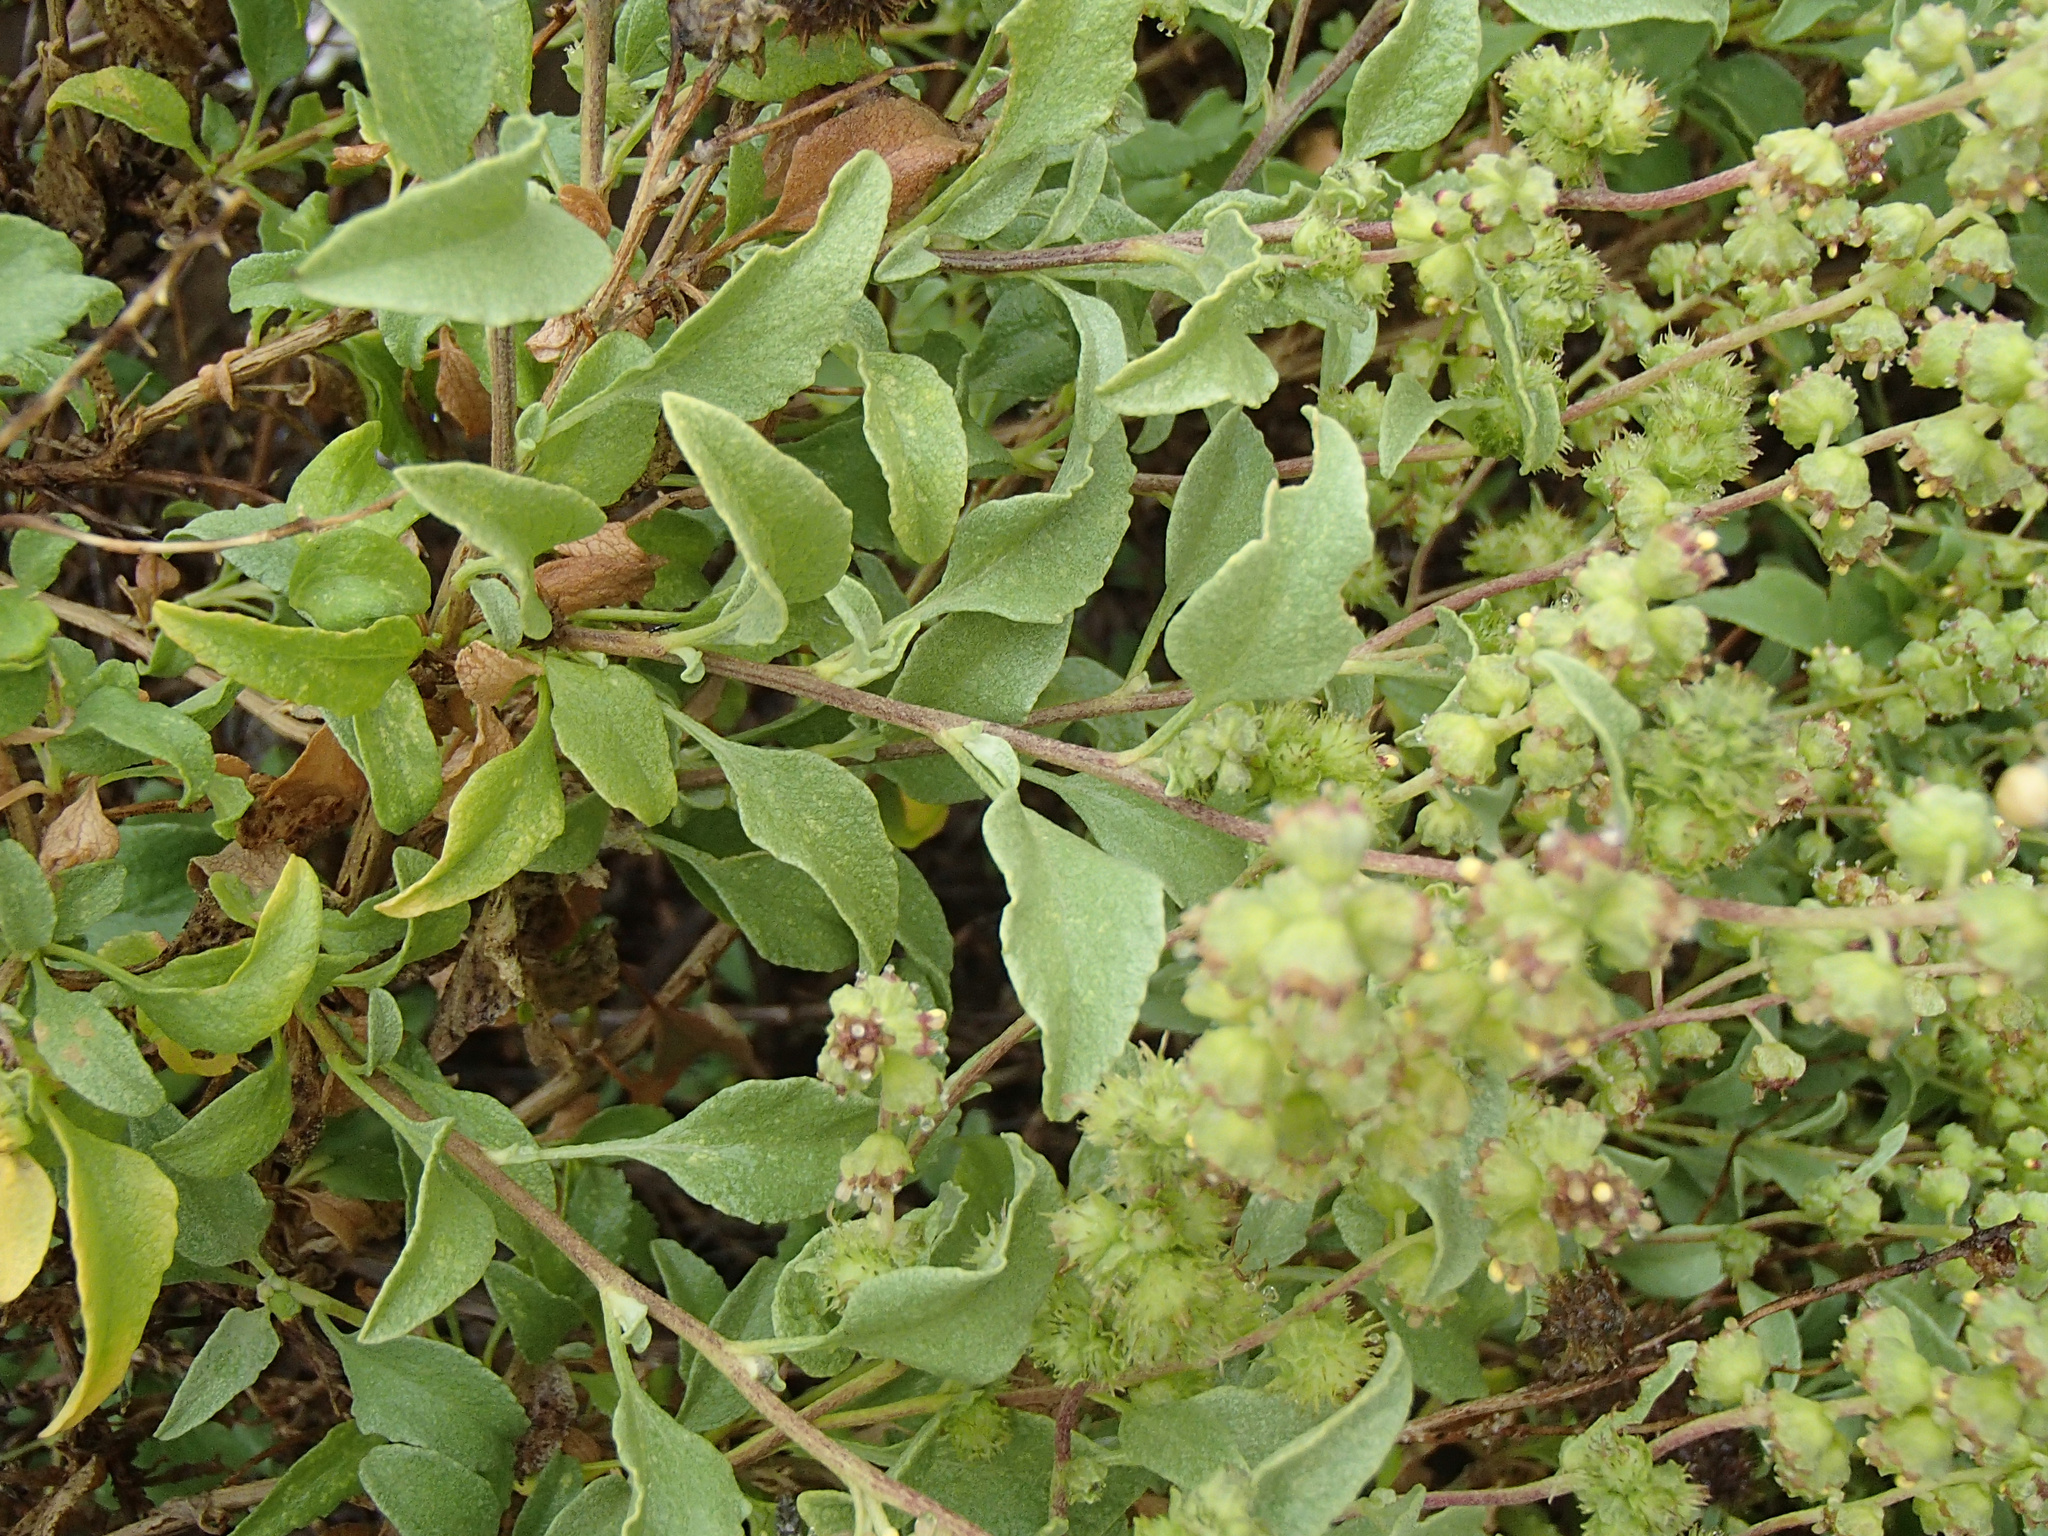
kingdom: Plantae
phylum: Tracheophyta
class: Magnoliopsida
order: Asterales
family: Asteraceae
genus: Ambrosia
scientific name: Ambrosia chenopodiifolia
